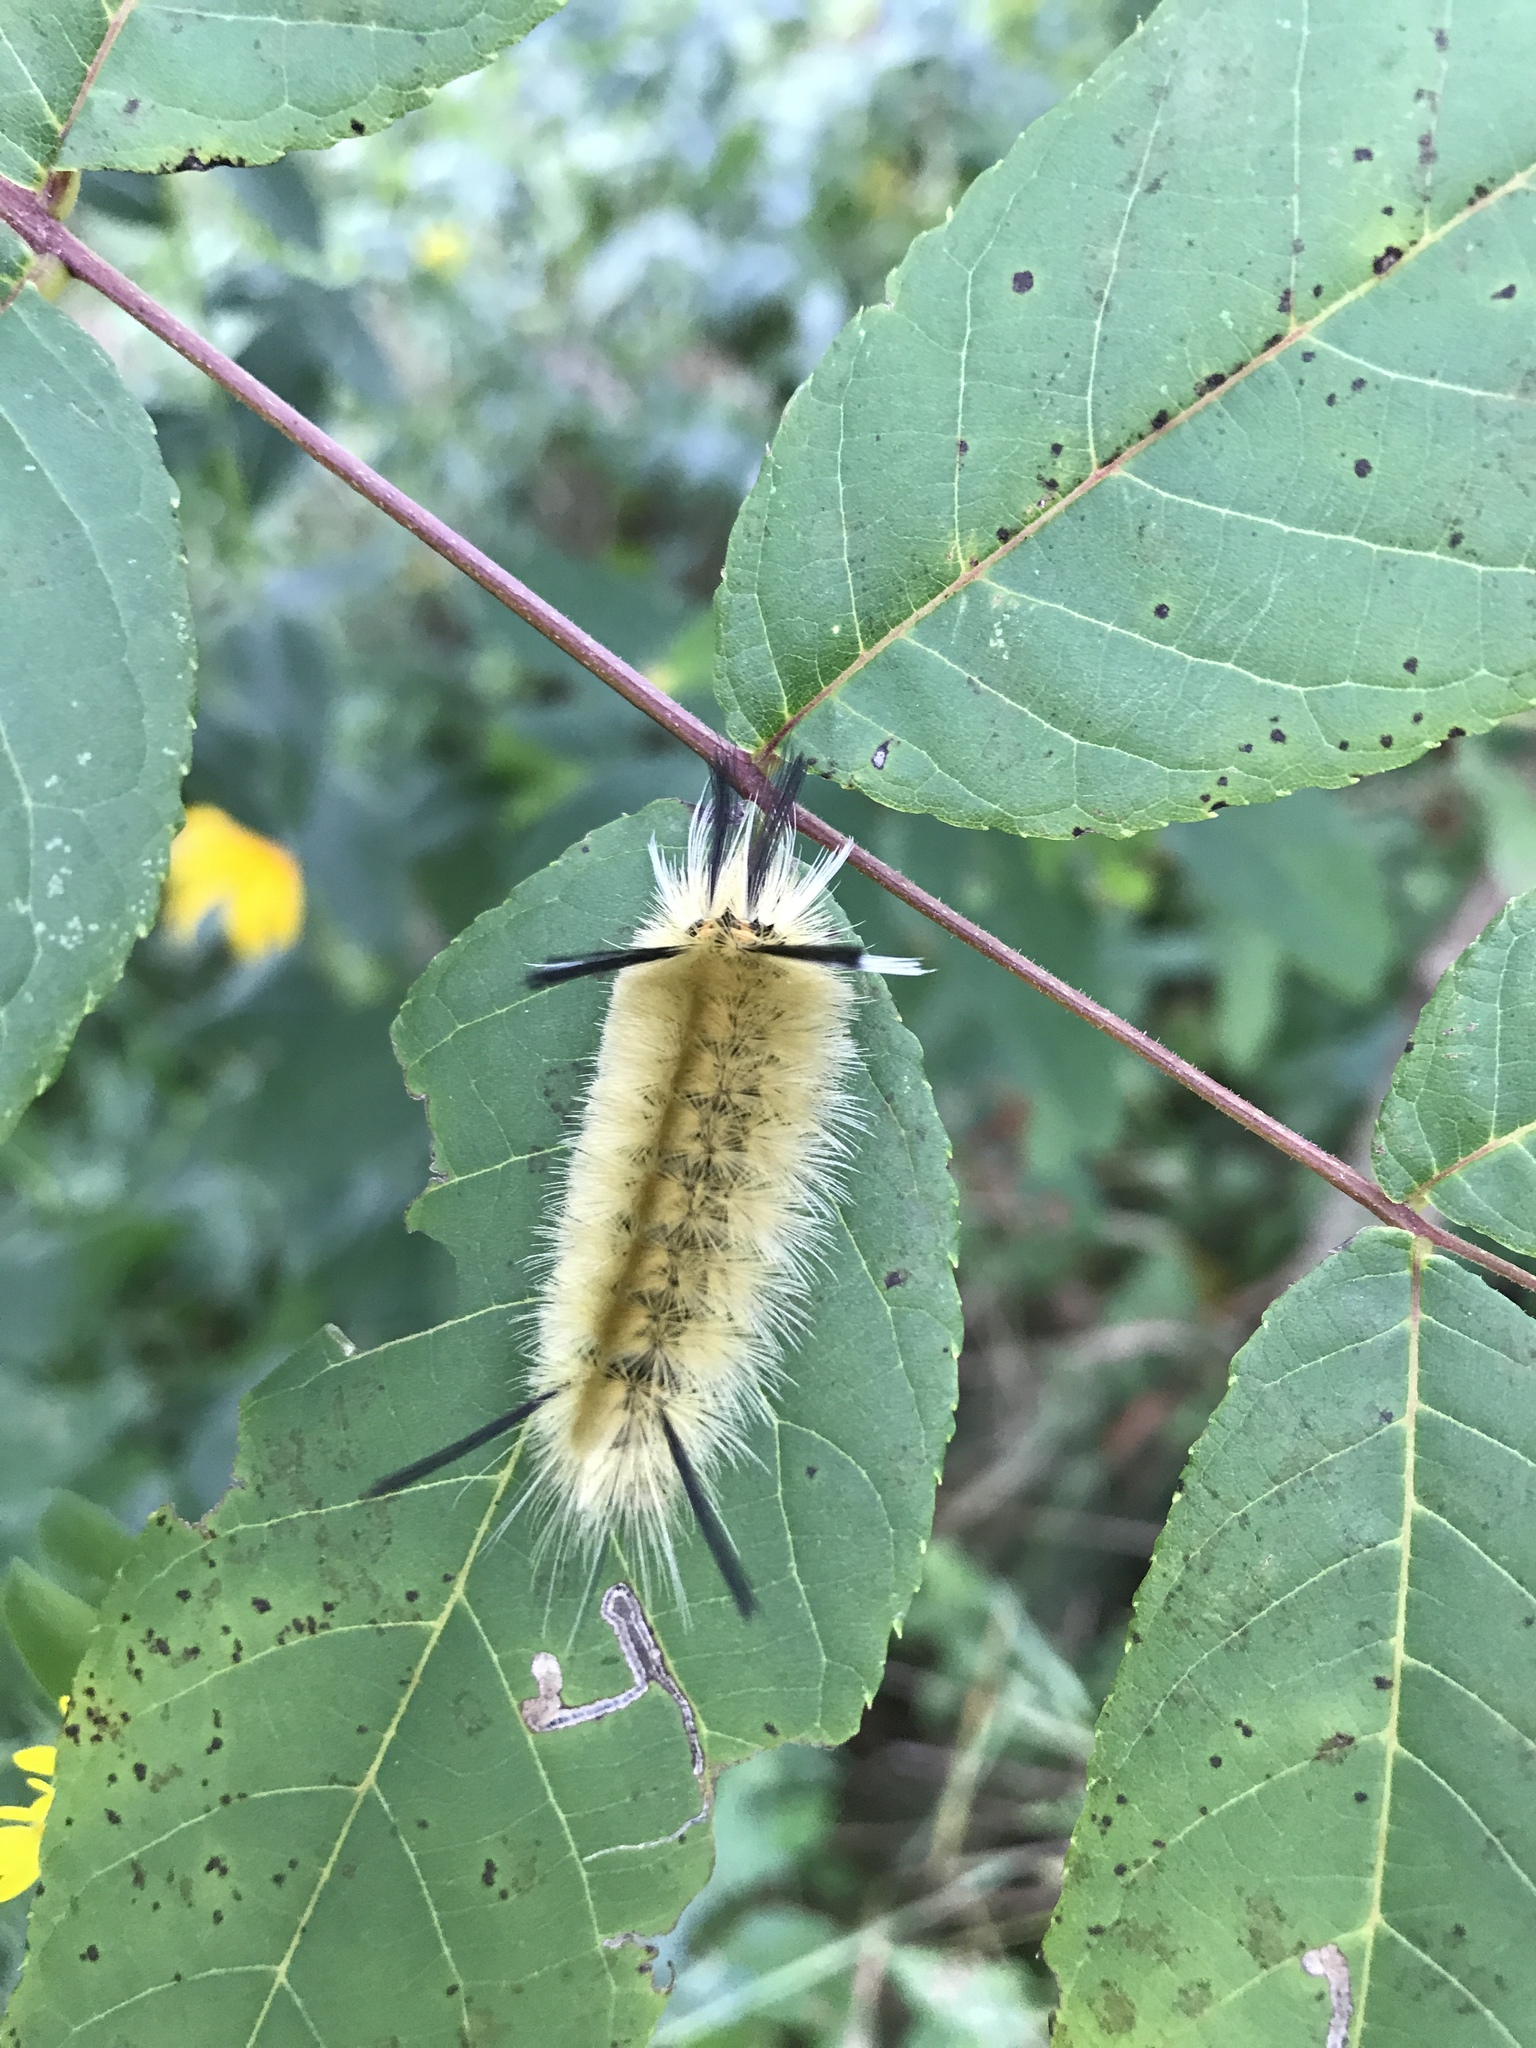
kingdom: Animalia
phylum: Arthropoda
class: Insecta
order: Lepidoptera
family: Erebidae
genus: Halysidota
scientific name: Halysidota tessellaris
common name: Banded tussock moth
